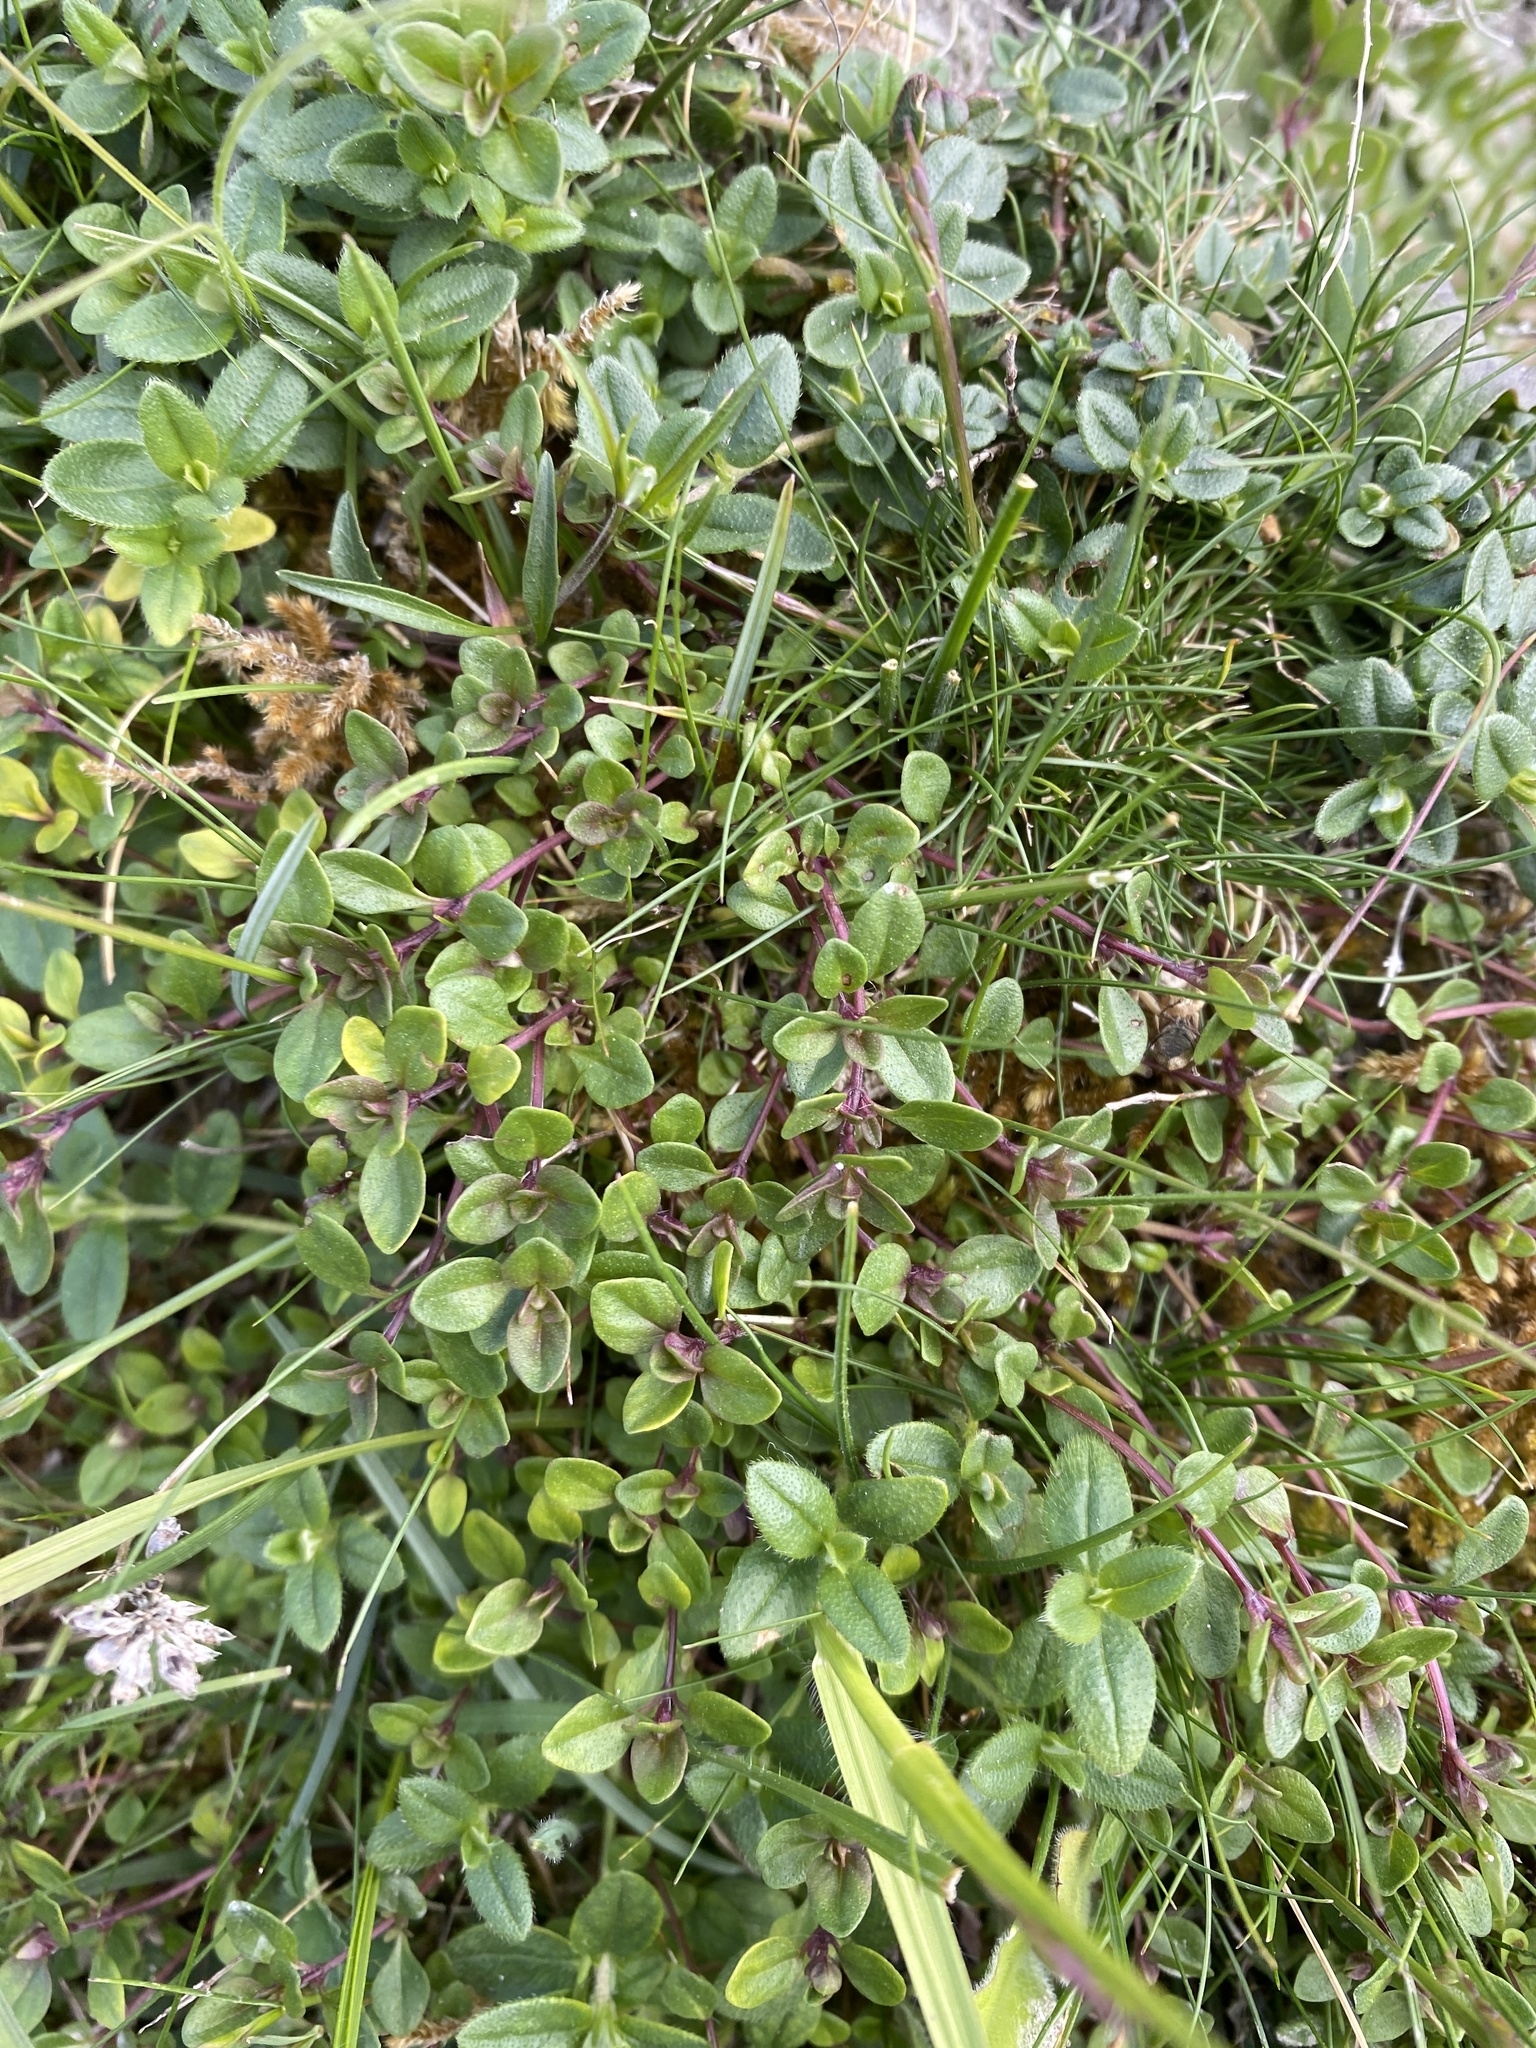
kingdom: Plantae
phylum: Tracheophyta
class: Magnoliopsida
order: Lamiales
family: Lamiaceae
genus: Thymus
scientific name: Thymus praecox
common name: Wild thyme
